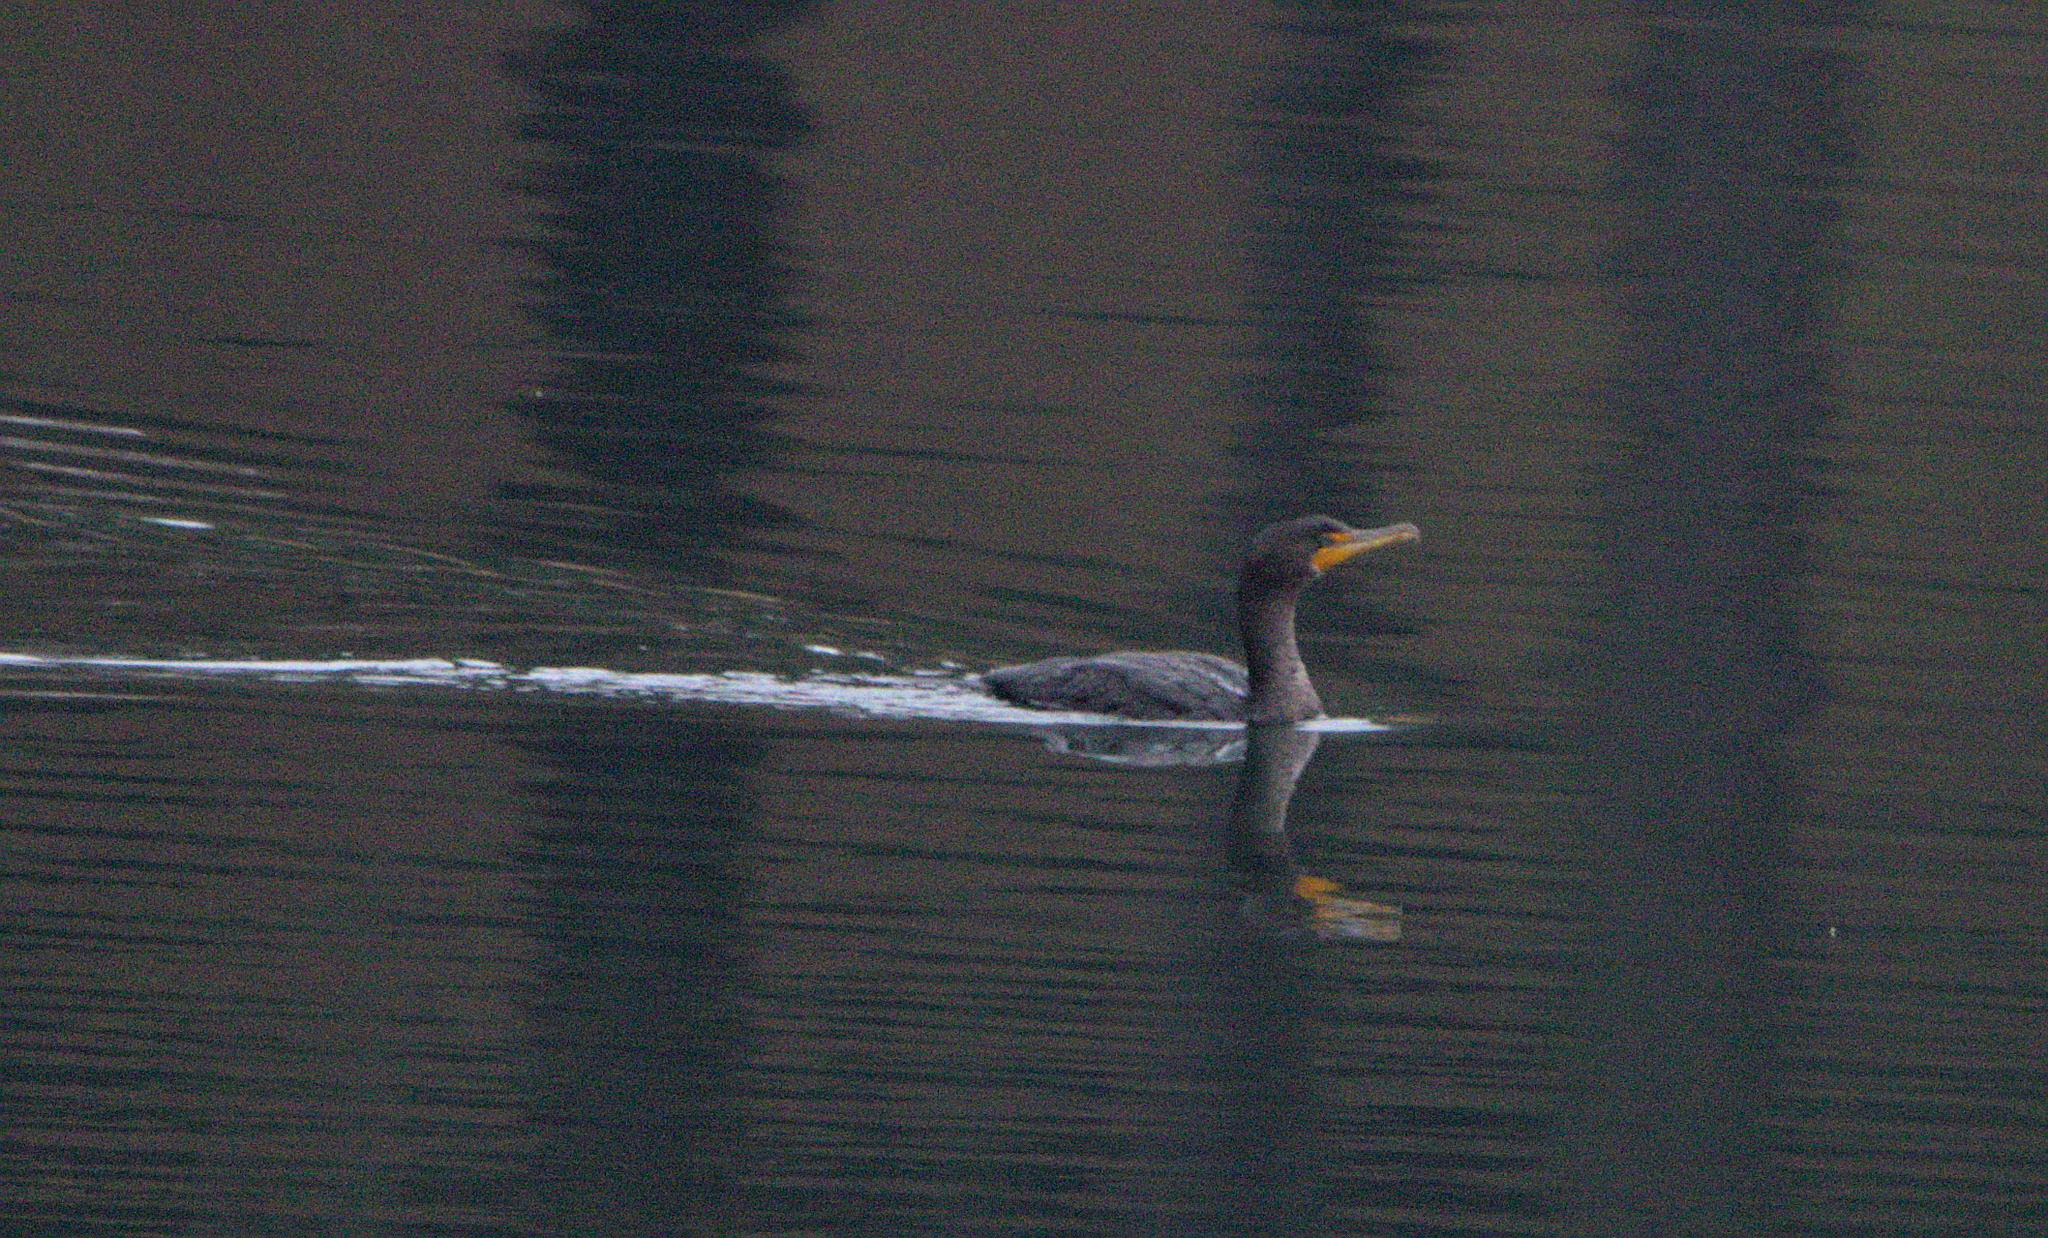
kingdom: Animalia
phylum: Chordata
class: Aves
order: Suliformes
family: Phalacrocoracidae
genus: Phalacrocorax
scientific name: Phalacrocorax auritus
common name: Double-crested cormorant
